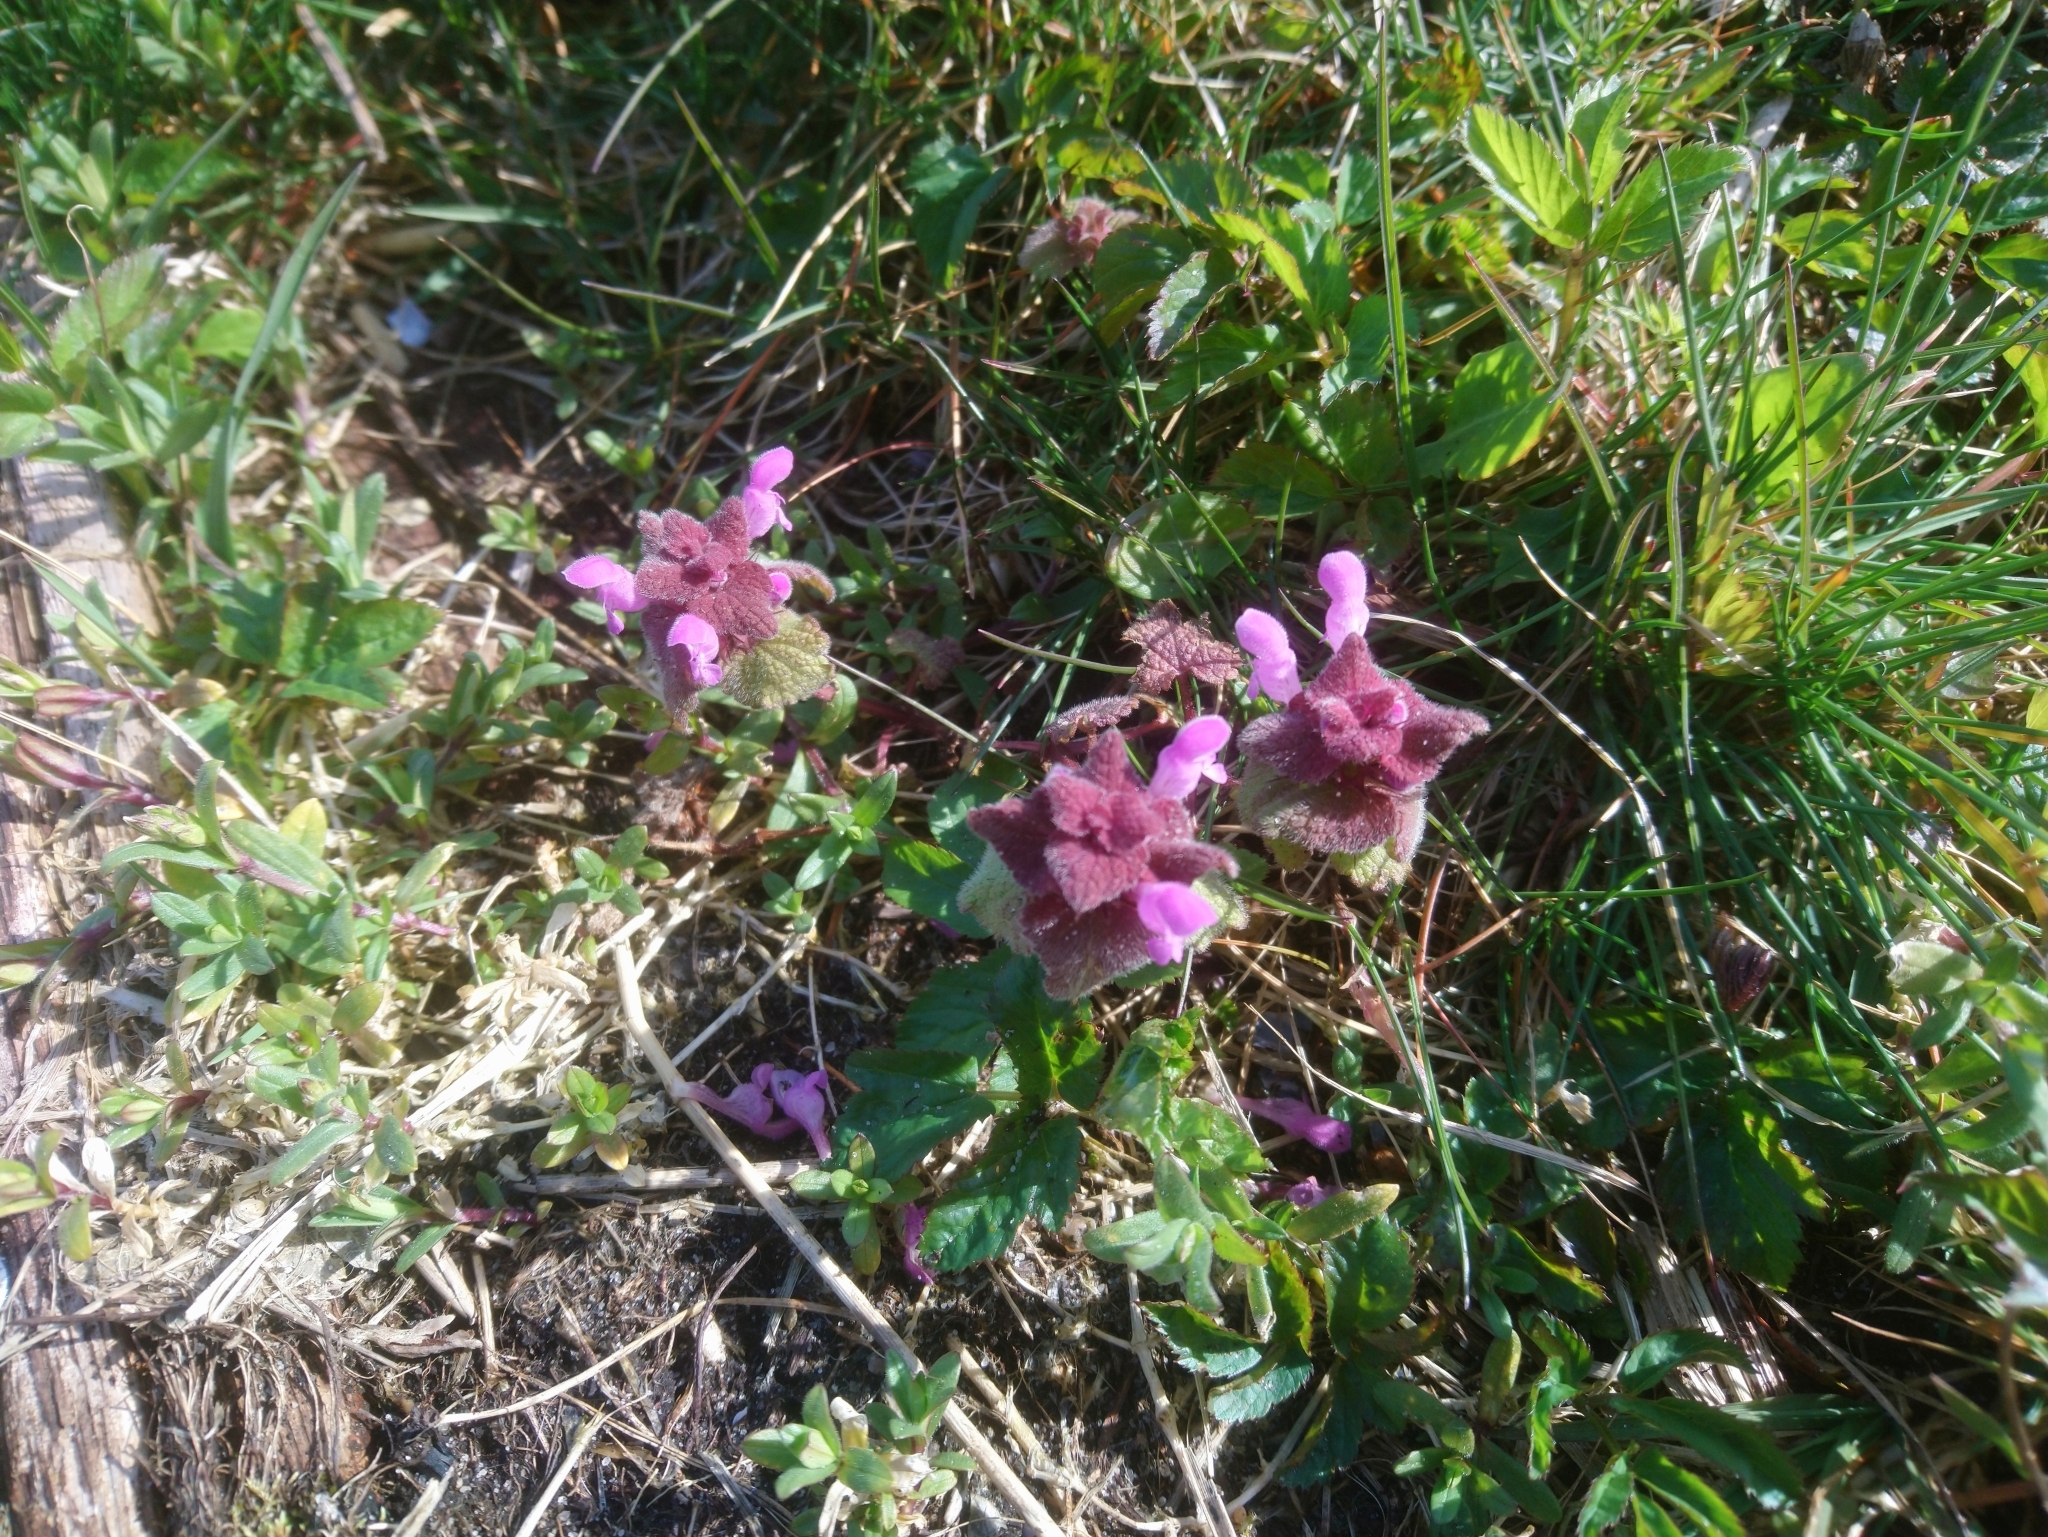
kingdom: Plantae
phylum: Tracheophyta
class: Magnoliopsida
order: Lamiales
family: Lamiaceae
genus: Lamium
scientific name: Lamium purpureum
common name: Red dead-nettle
